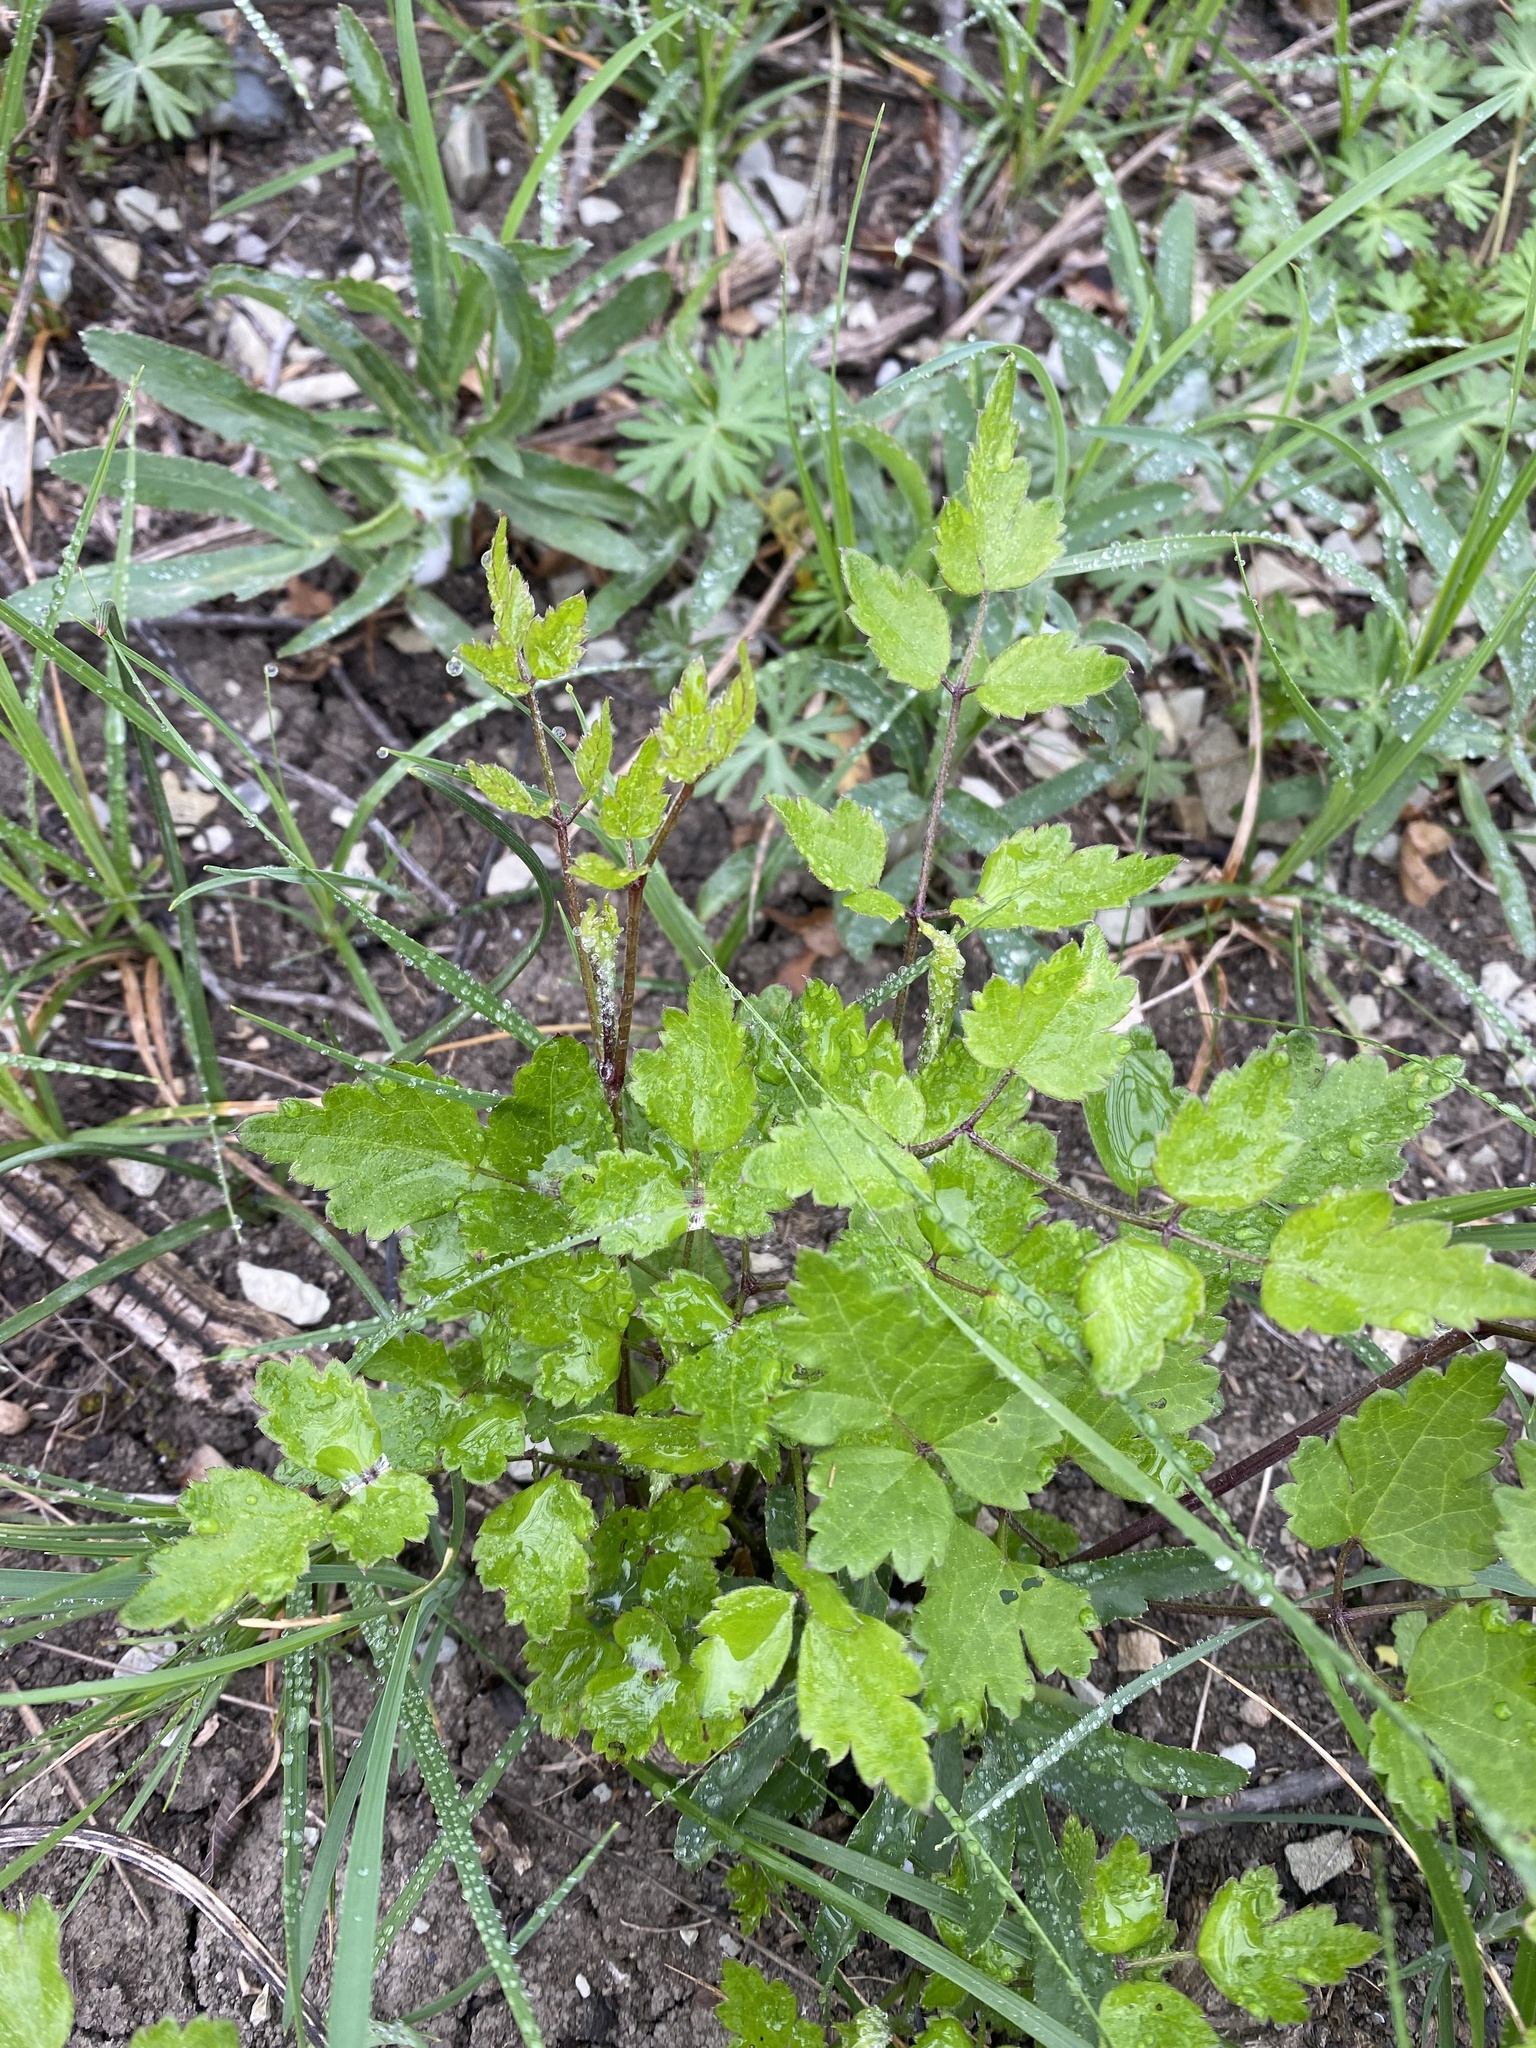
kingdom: Plantae
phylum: Tracheophyta
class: Magnoliopsida
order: Ranunculales
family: Ranunculaceae
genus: Clematis
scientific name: Clematis vitalba
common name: Evergreen clematis
